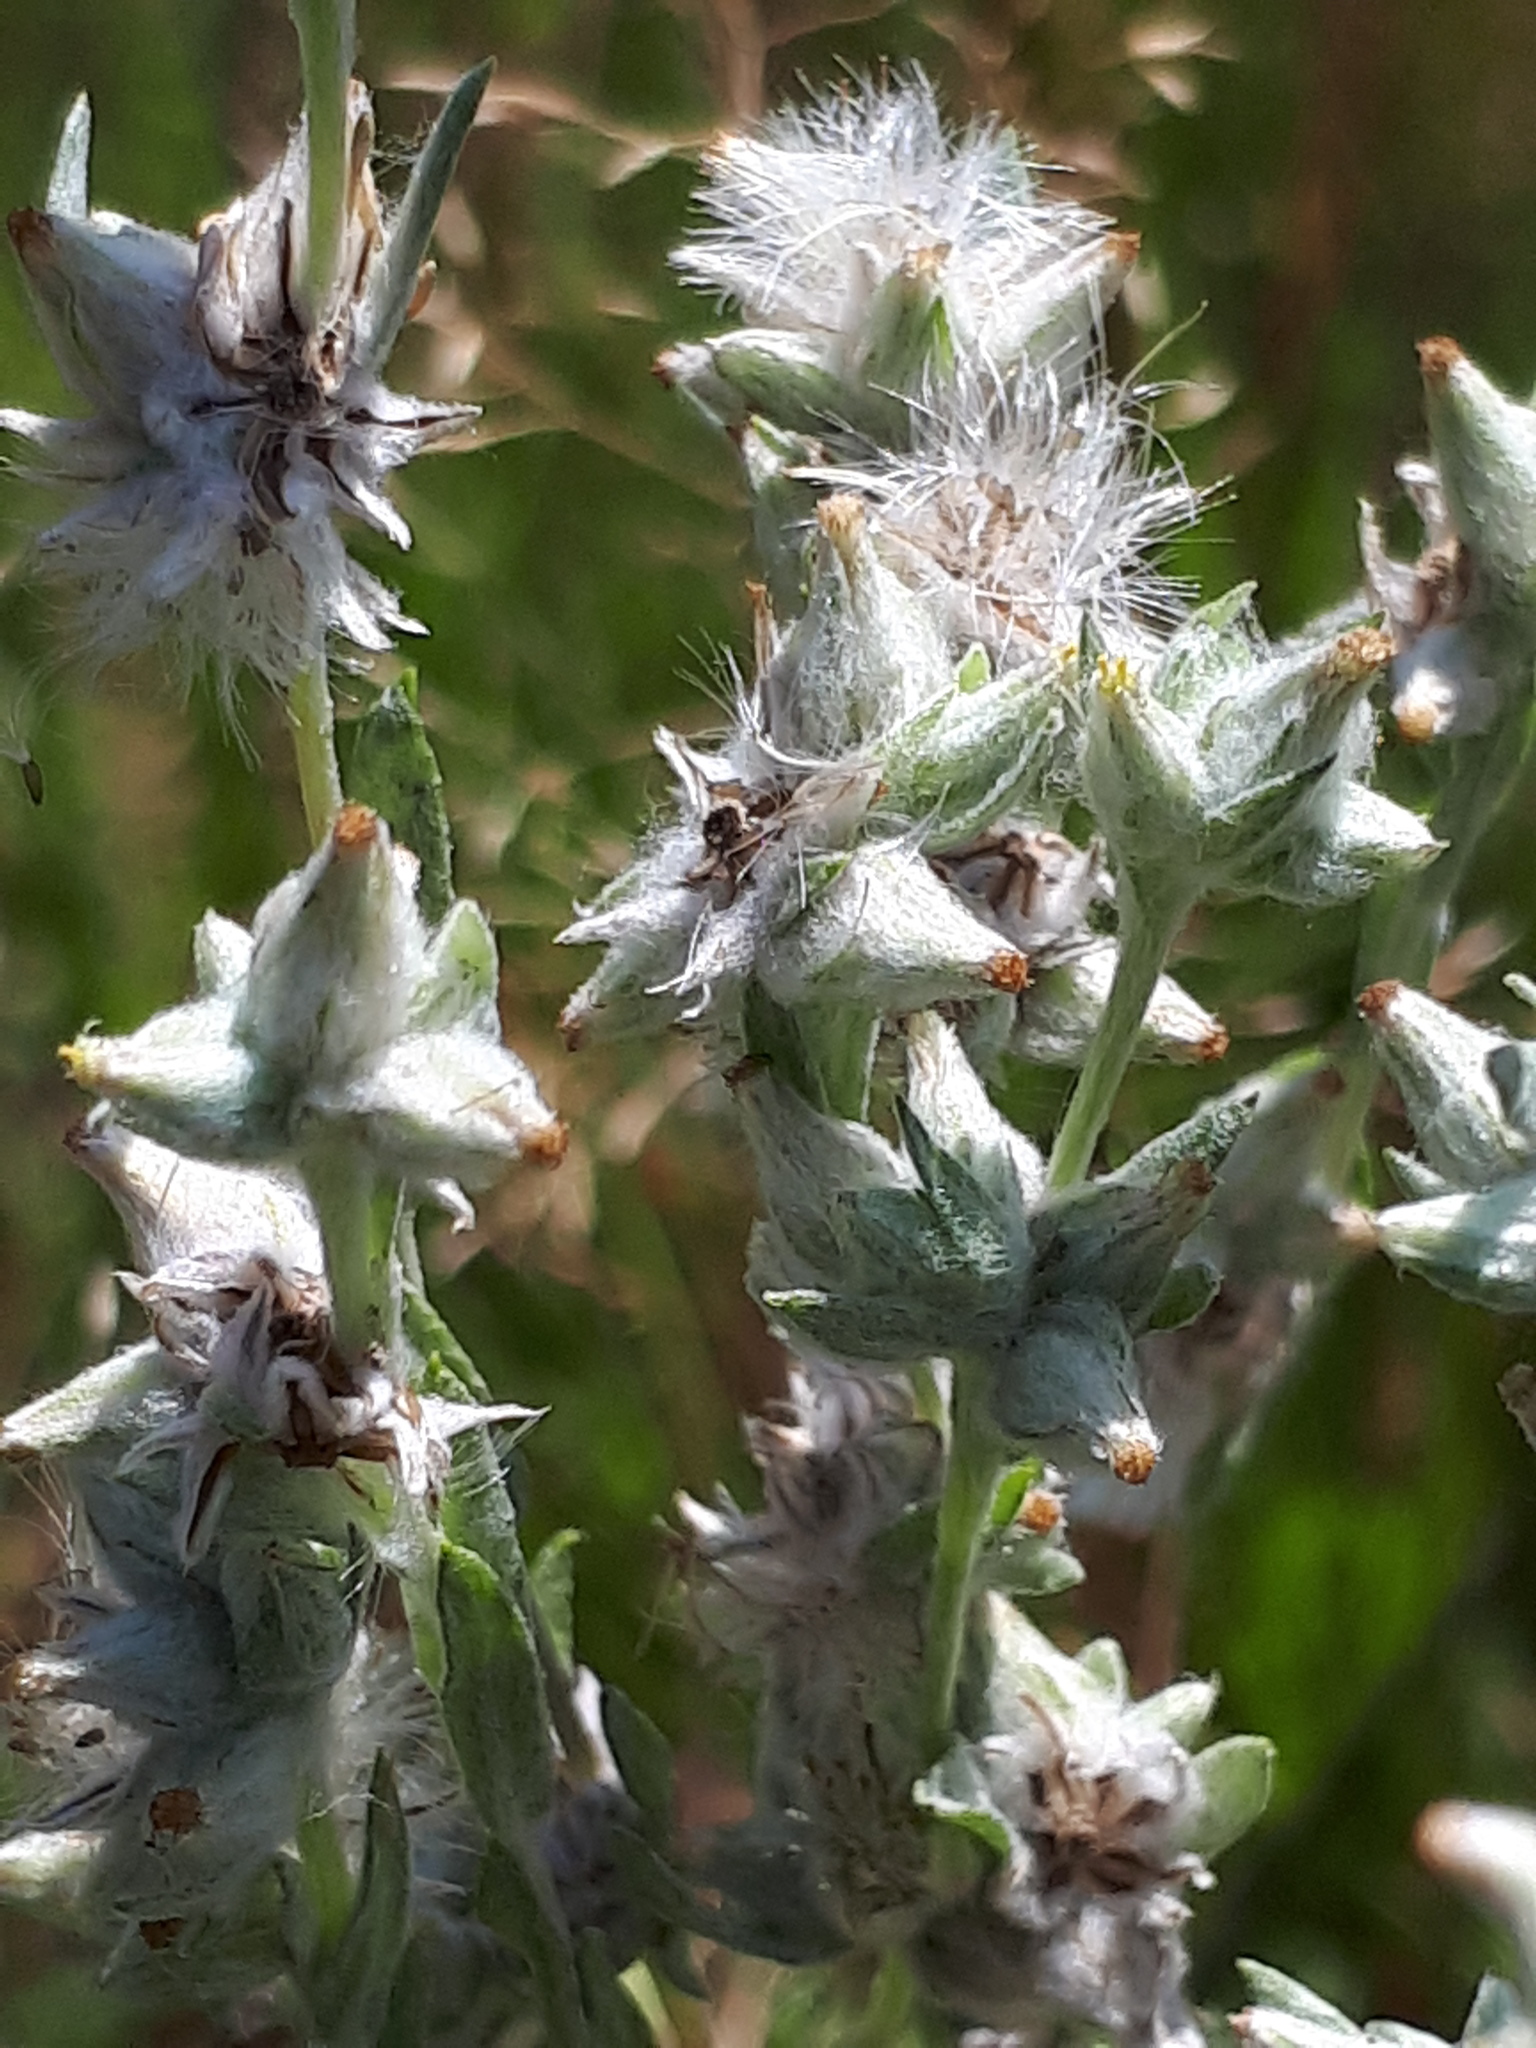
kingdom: Plantae
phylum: Tracheophyta
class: Magnoliopsida
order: Asterales
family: Asteraceae
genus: Filago
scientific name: Filago arvensis
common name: Field cudweed
